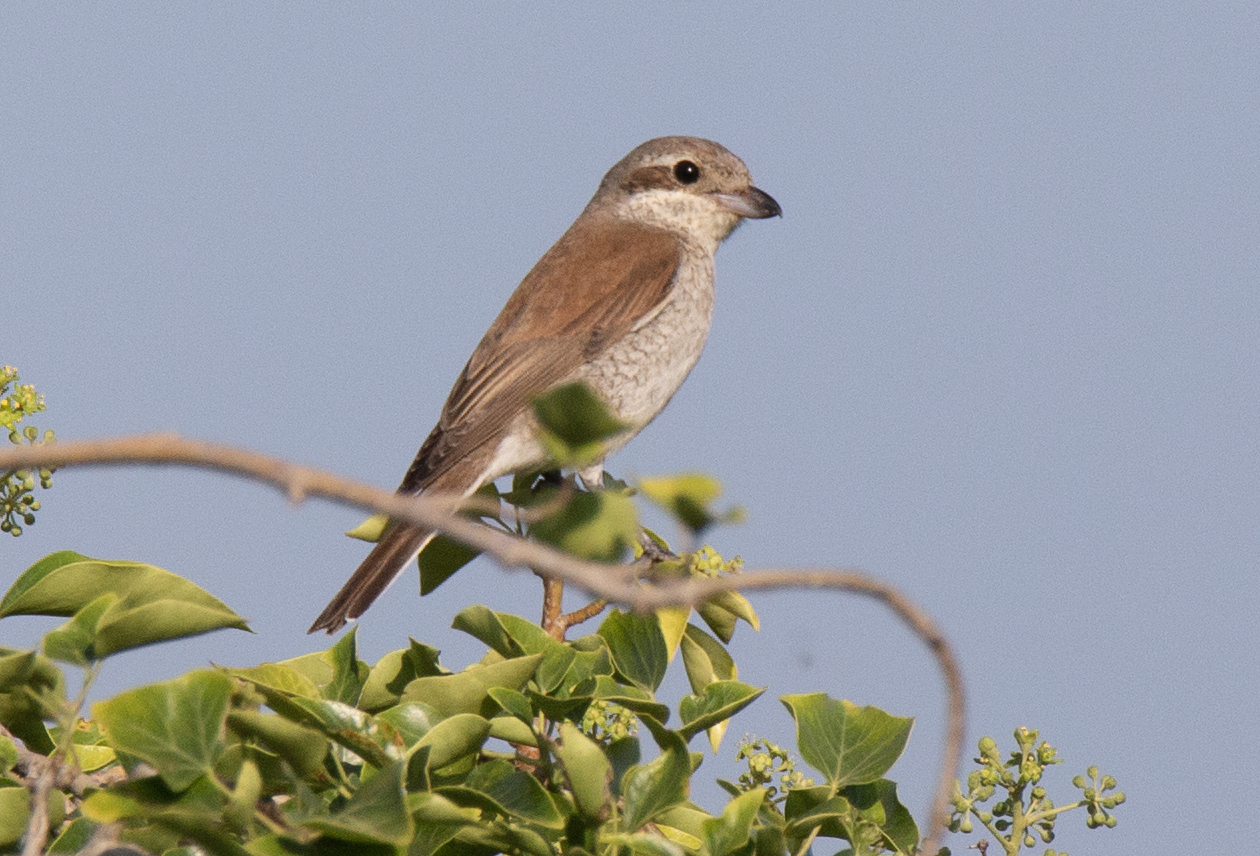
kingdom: Animalia
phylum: Chordata
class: Aves
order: Passeriformes
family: Laniidae
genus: Lanius
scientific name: Lanius collurio
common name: Red-backed shrike
